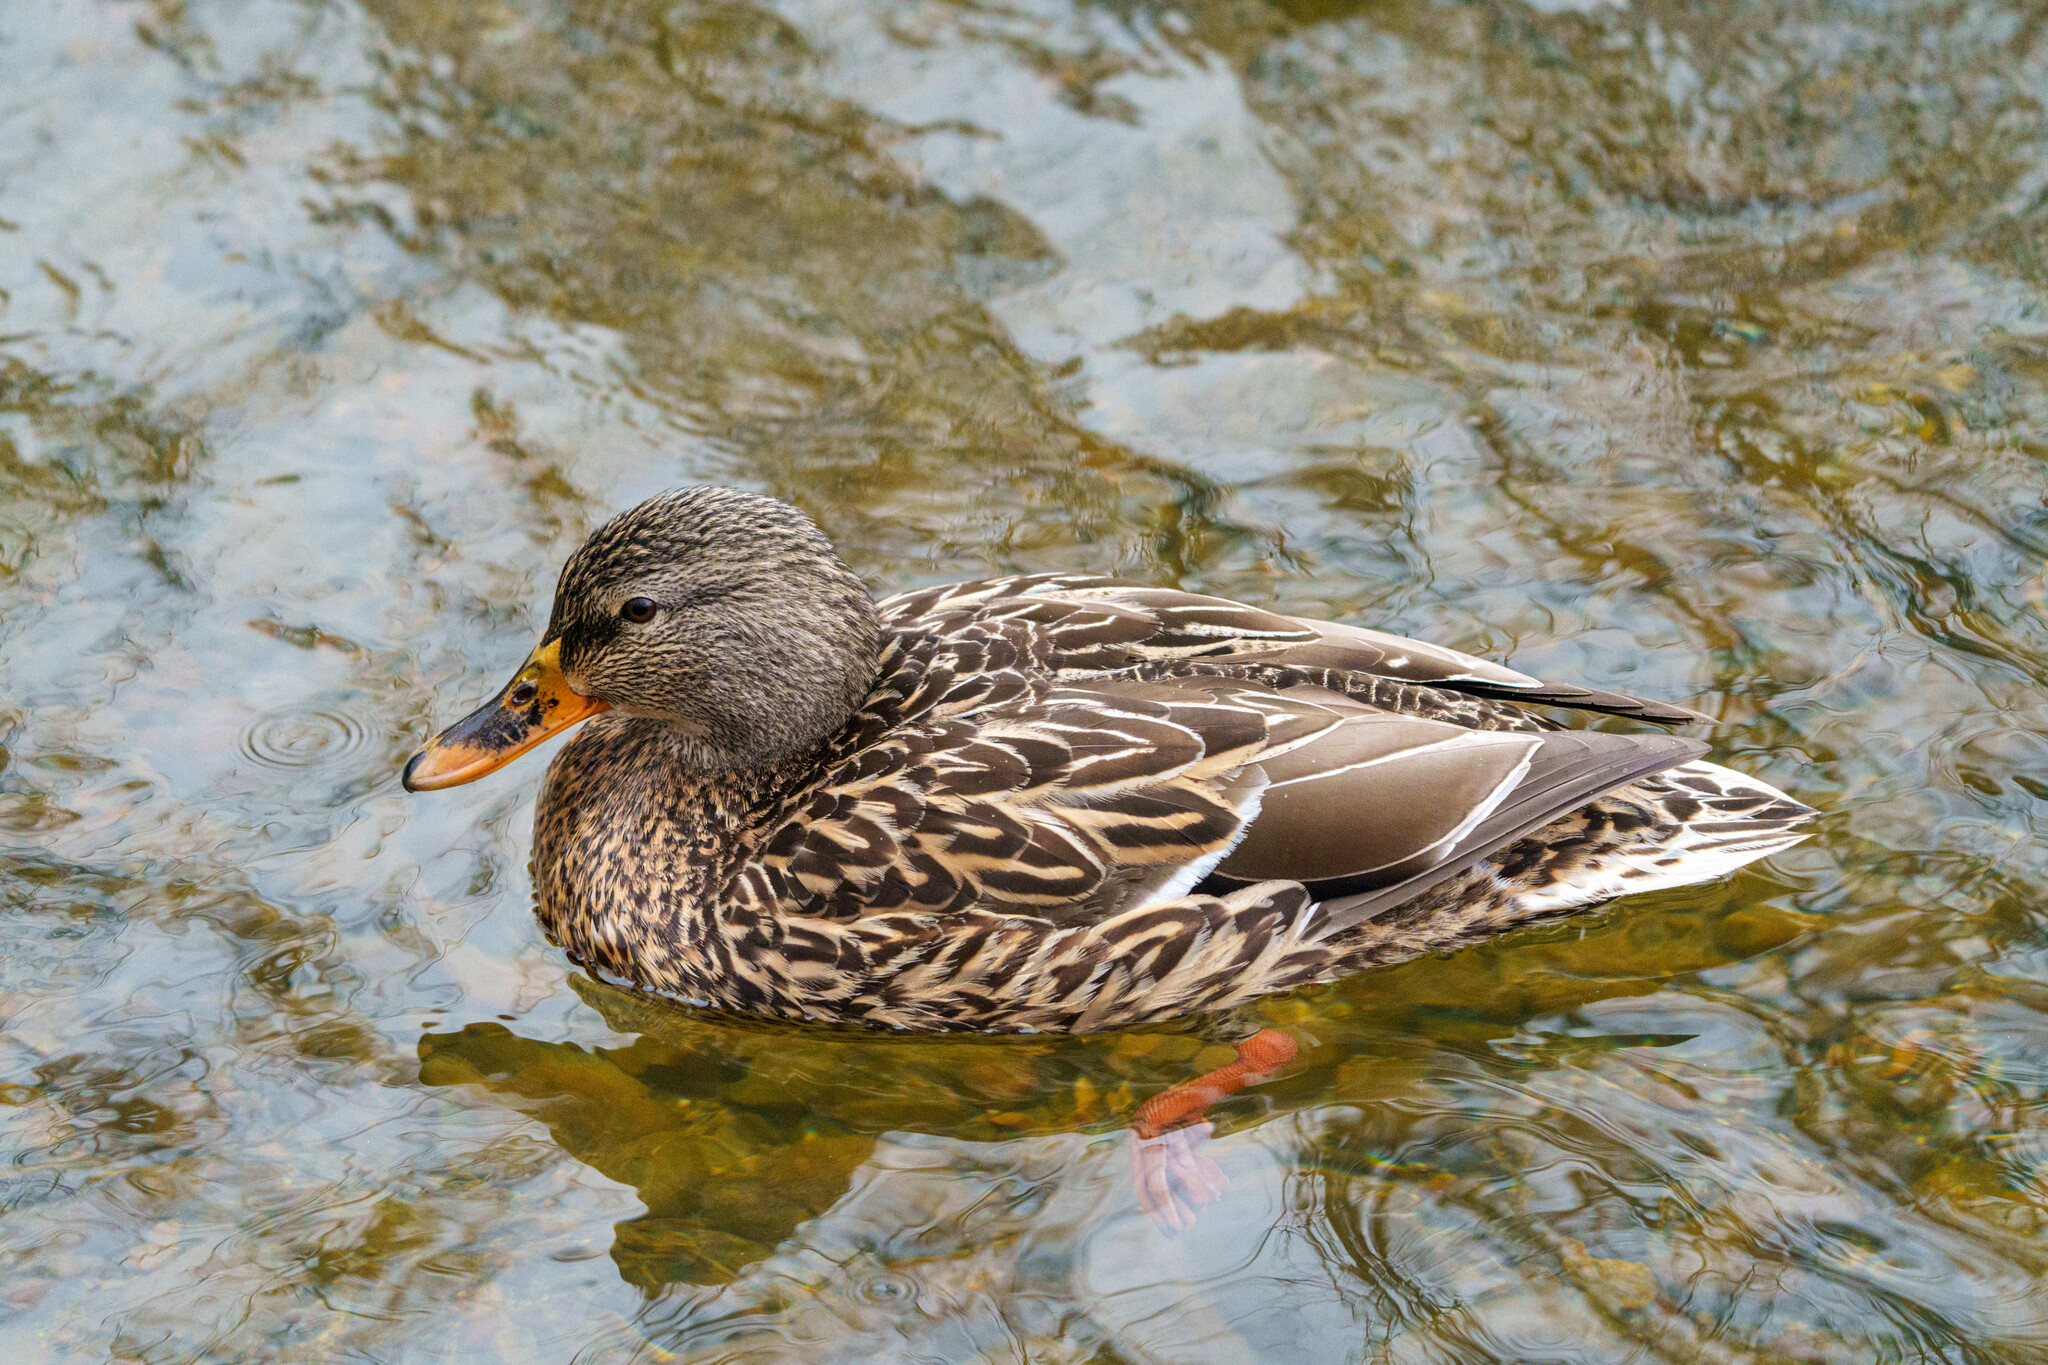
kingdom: Animalia
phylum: Chordata
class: Aves
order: Anseriformes
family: Anatidae
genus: Anas
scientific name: Anas platyrhynchos
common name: Mallard
